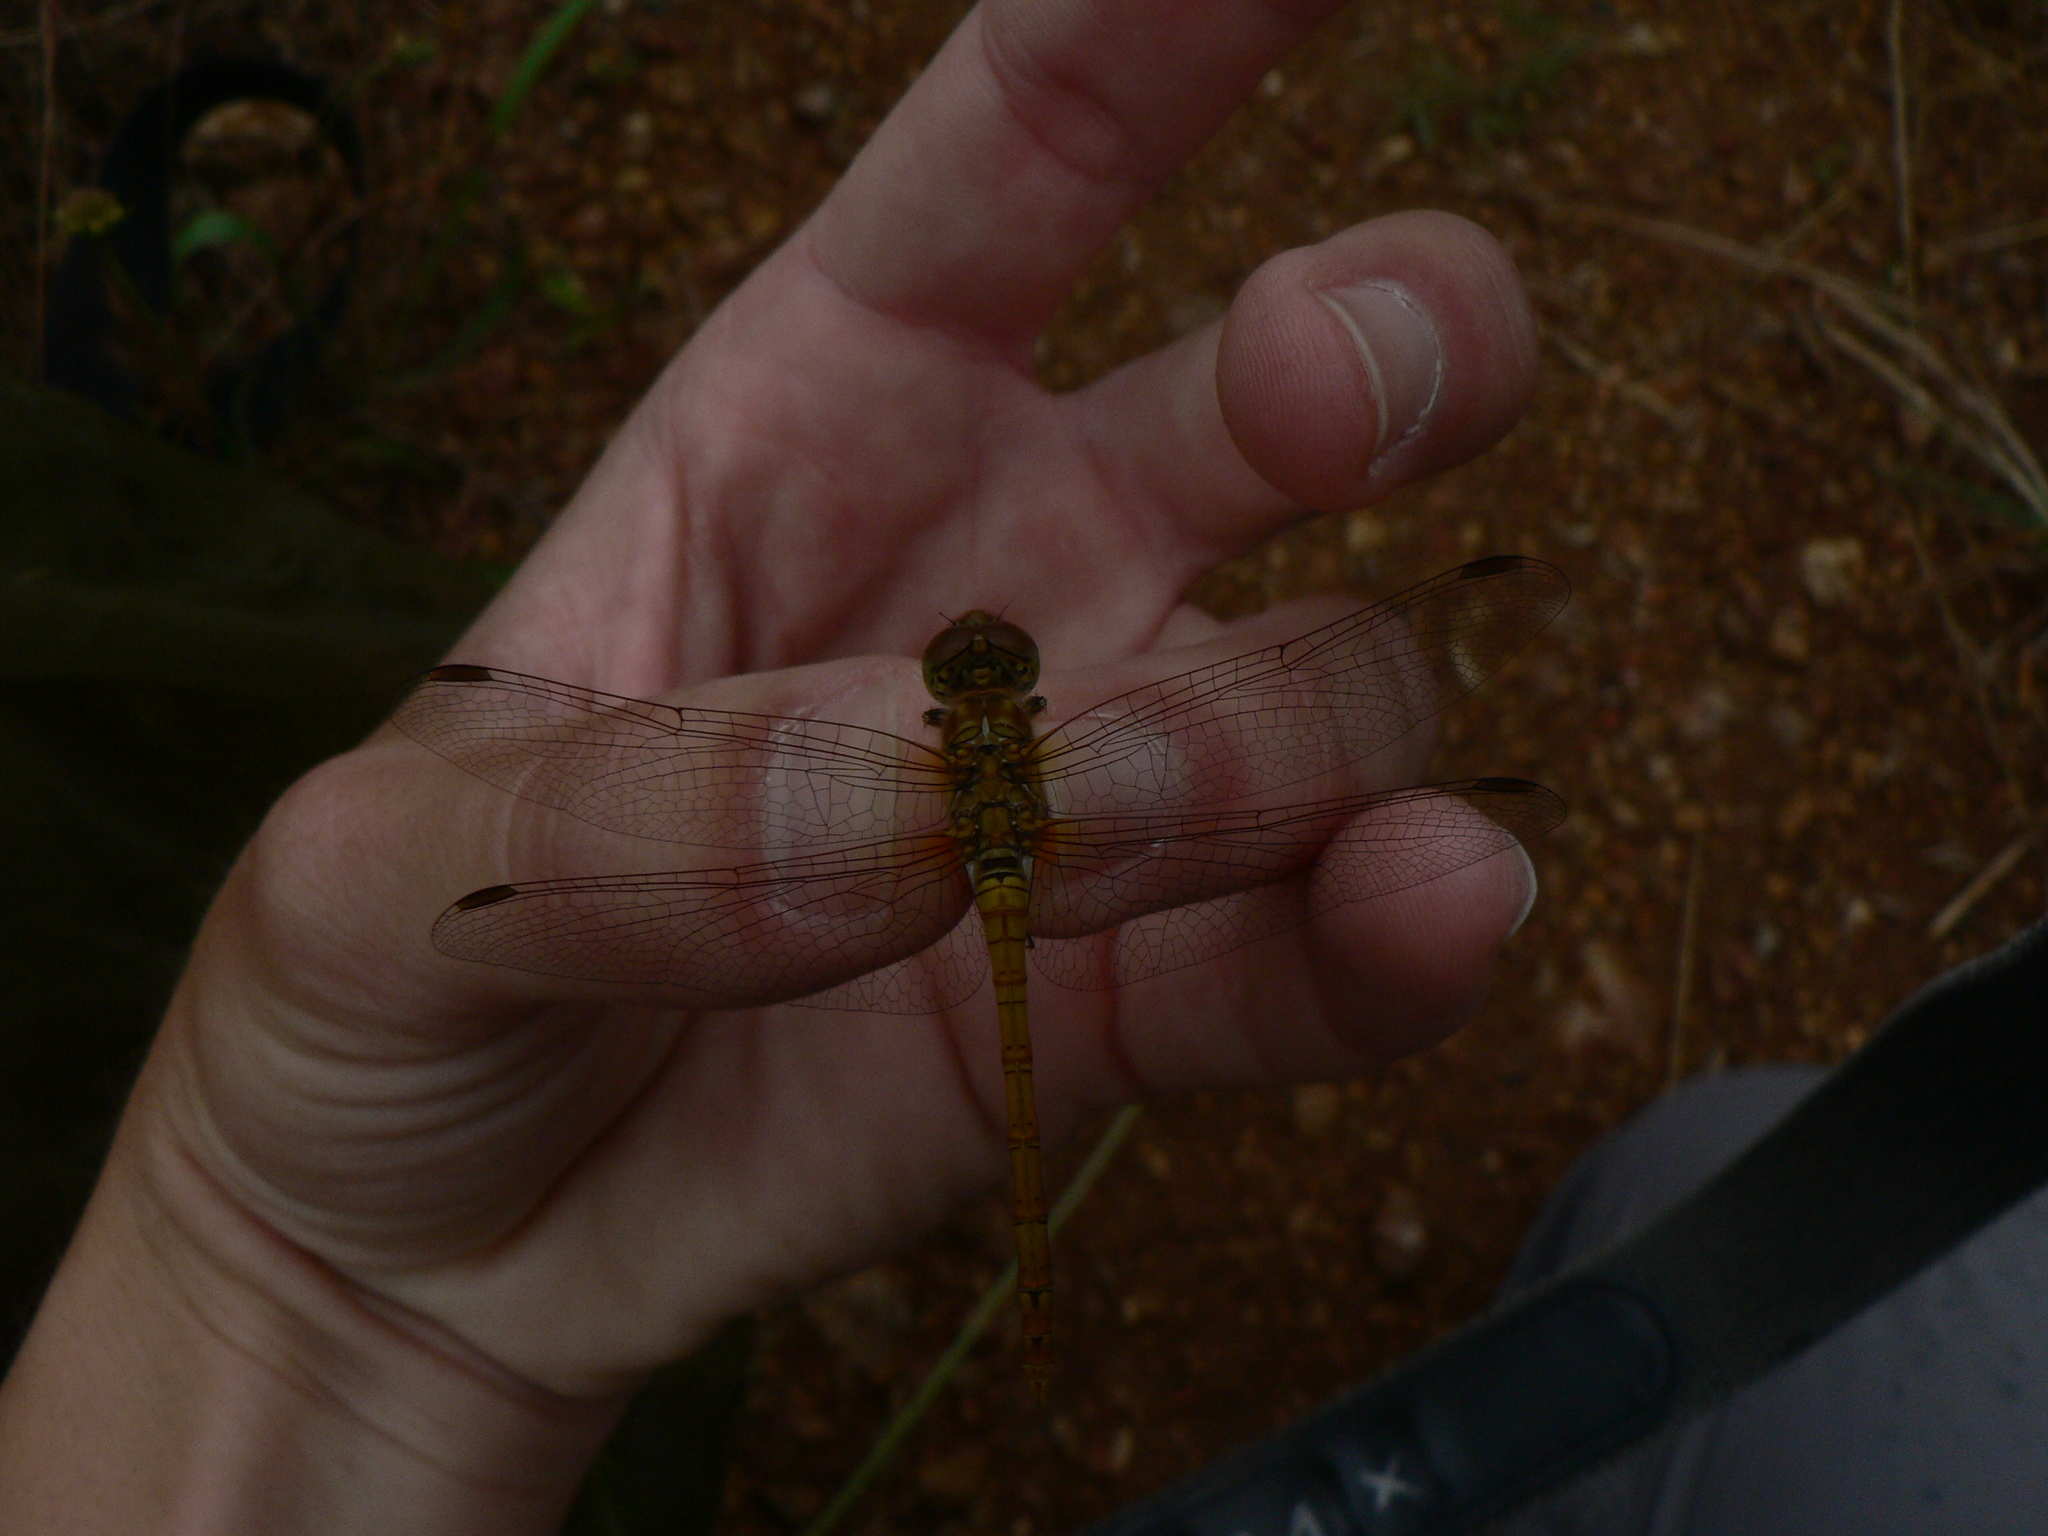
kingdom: Animalia
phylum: Arthropoda
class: Insecta
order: Odonata
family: Libellulidae
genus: Sympetrum
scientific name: Sympetrum striolatum
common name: Common darter
